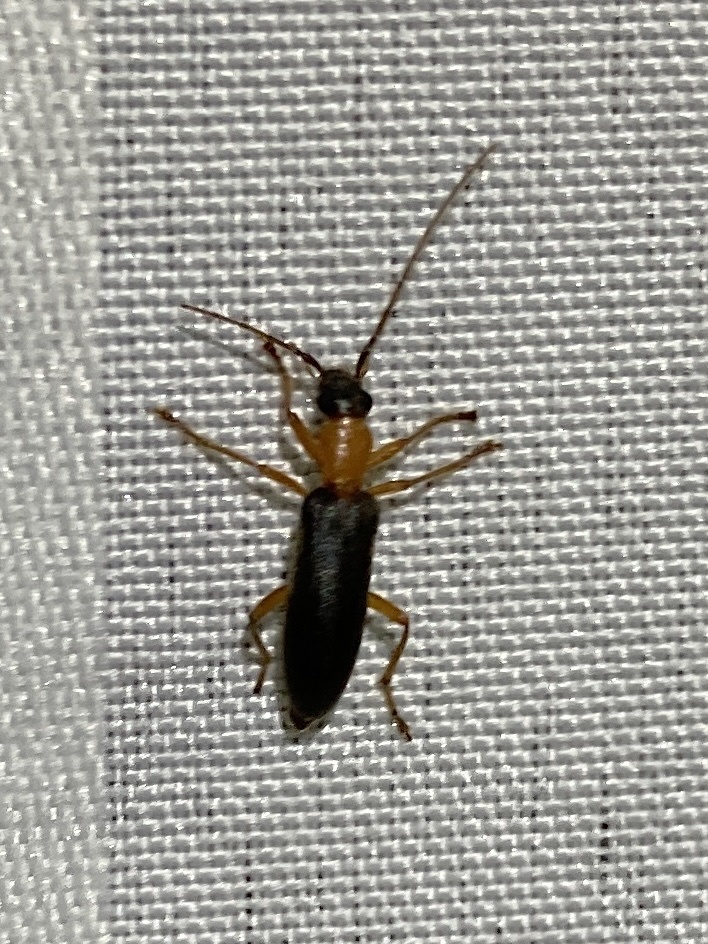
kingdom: Animalia
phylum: Arthropoda
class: Insecta
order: Coleoptera
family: Oedemeridae
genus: Ananca
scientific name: Ananca bicolor
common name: Red-black false blister-beetle
